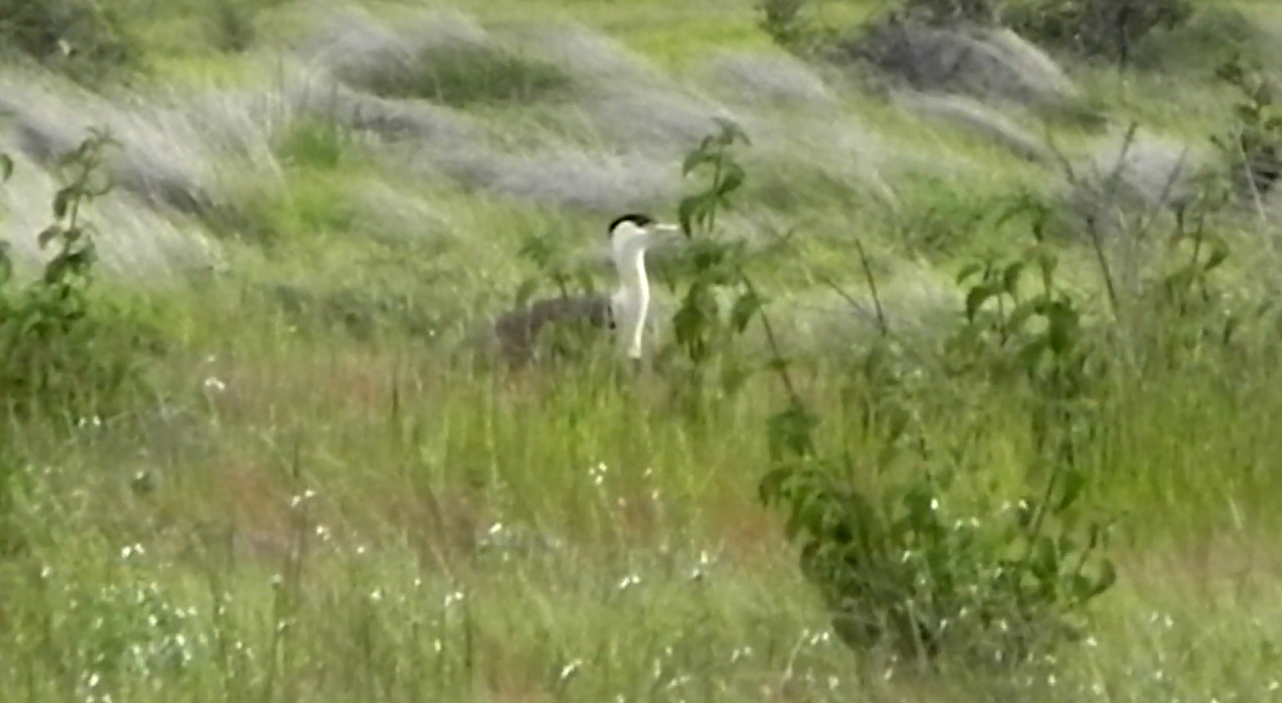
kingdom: Animalia
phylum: Chordata
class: Aves
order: Otidiformes
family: Otididae
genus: Ardeotis
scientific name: Ardeotis nigriceps
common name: Great indian bustard
